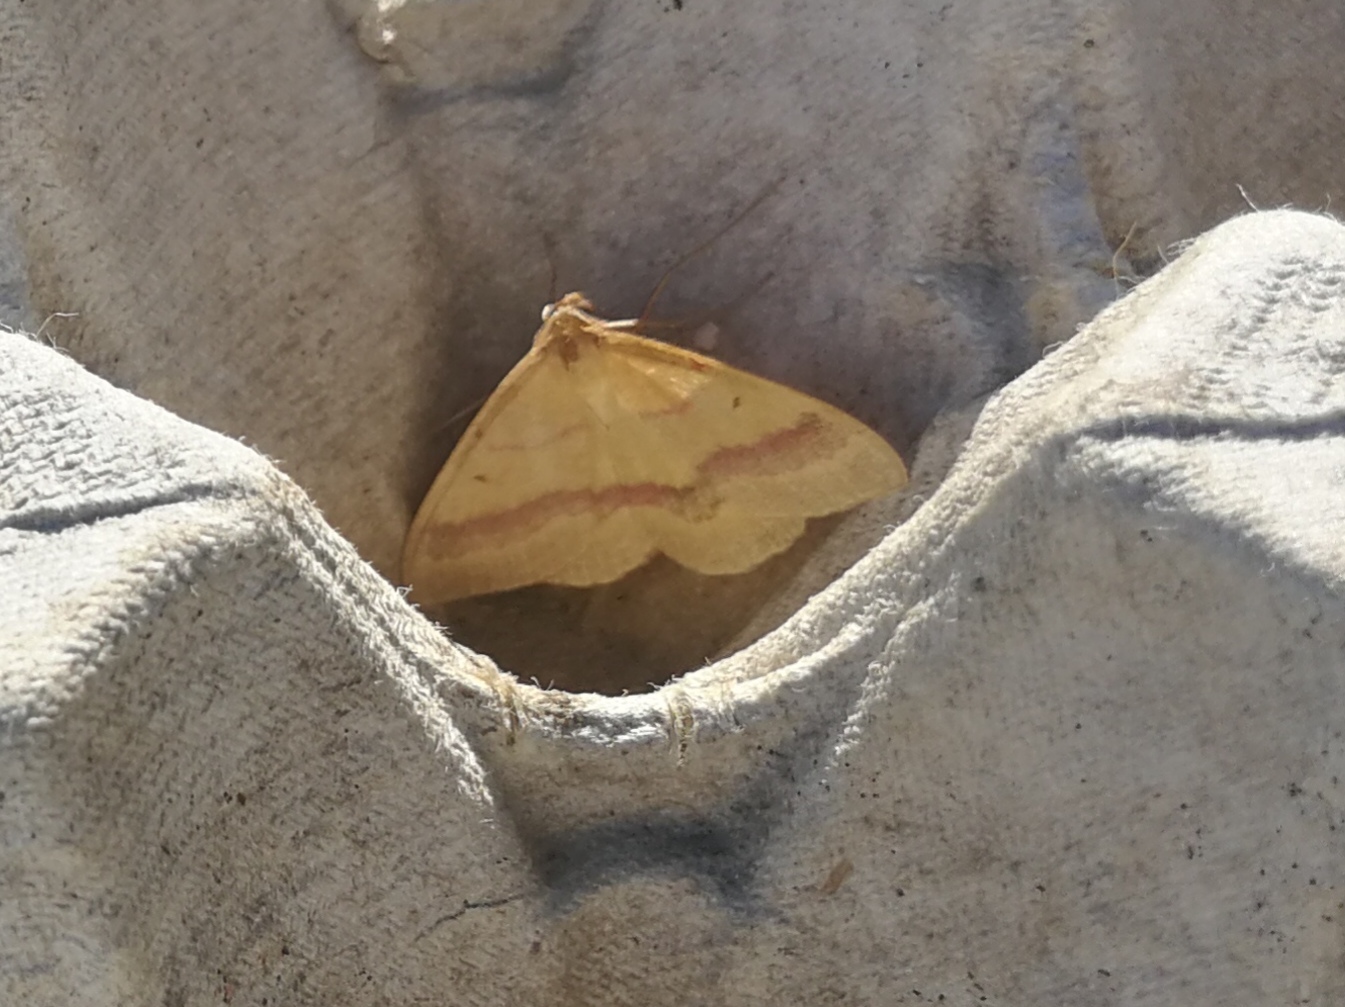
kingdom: Animalia
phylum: Arthropoda
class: Insecta
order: Lepidoptera
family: Geometridae
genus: Rhodostrophia
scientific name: Rhodostrophia calabra
